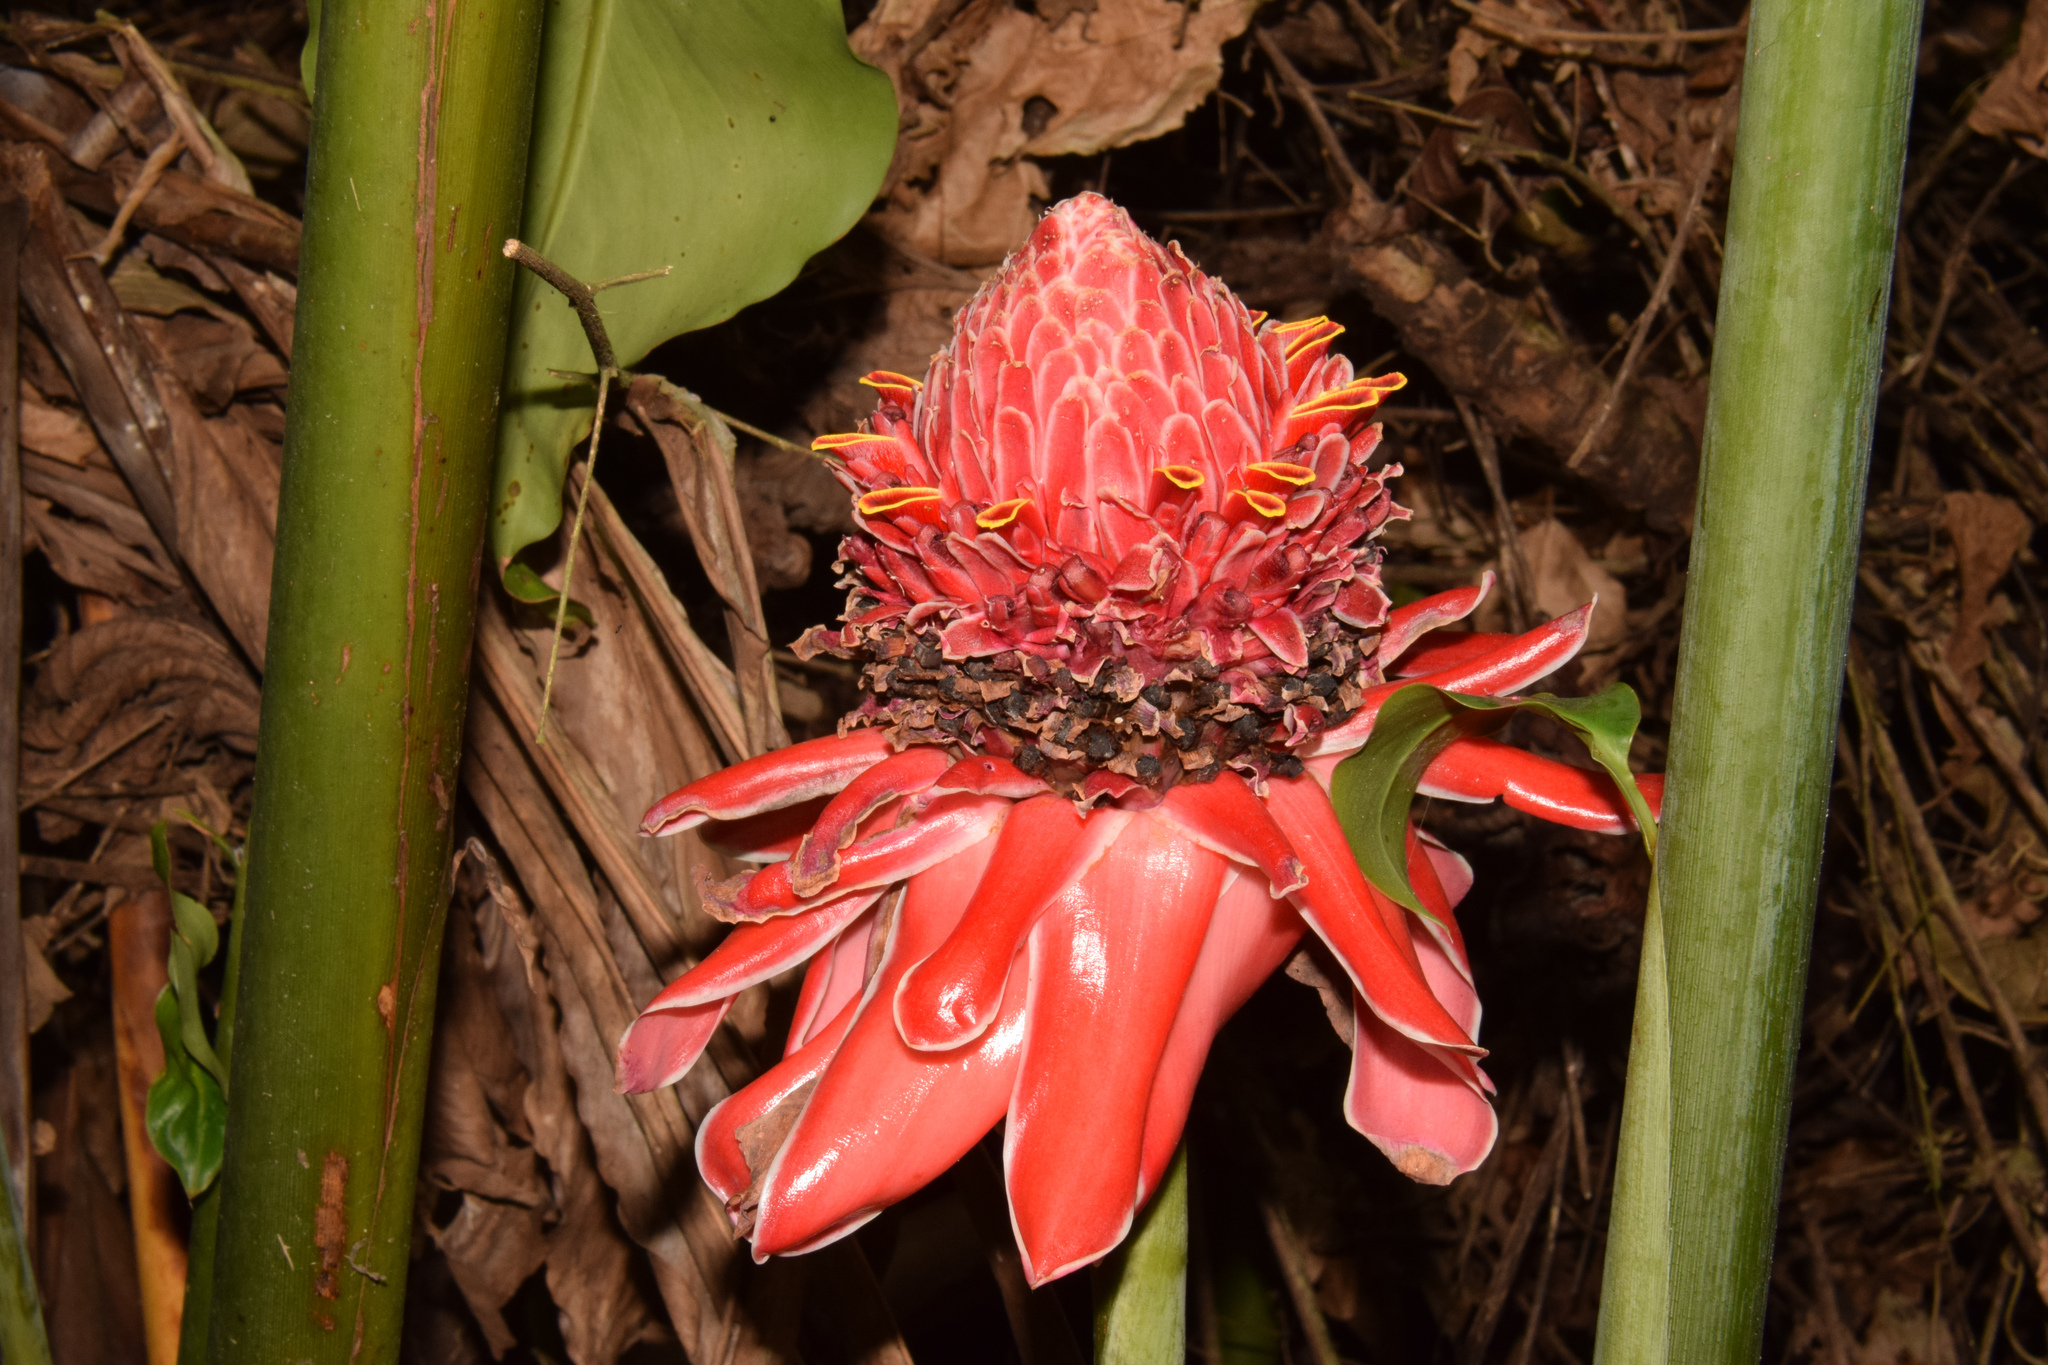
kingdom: Plantae
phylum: Tracheophyta
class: Liliopsida
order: Zingiberales
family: Zingiberaceae
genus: Etlingera
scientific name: Etlingera elatior
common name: Philippine waxflower
